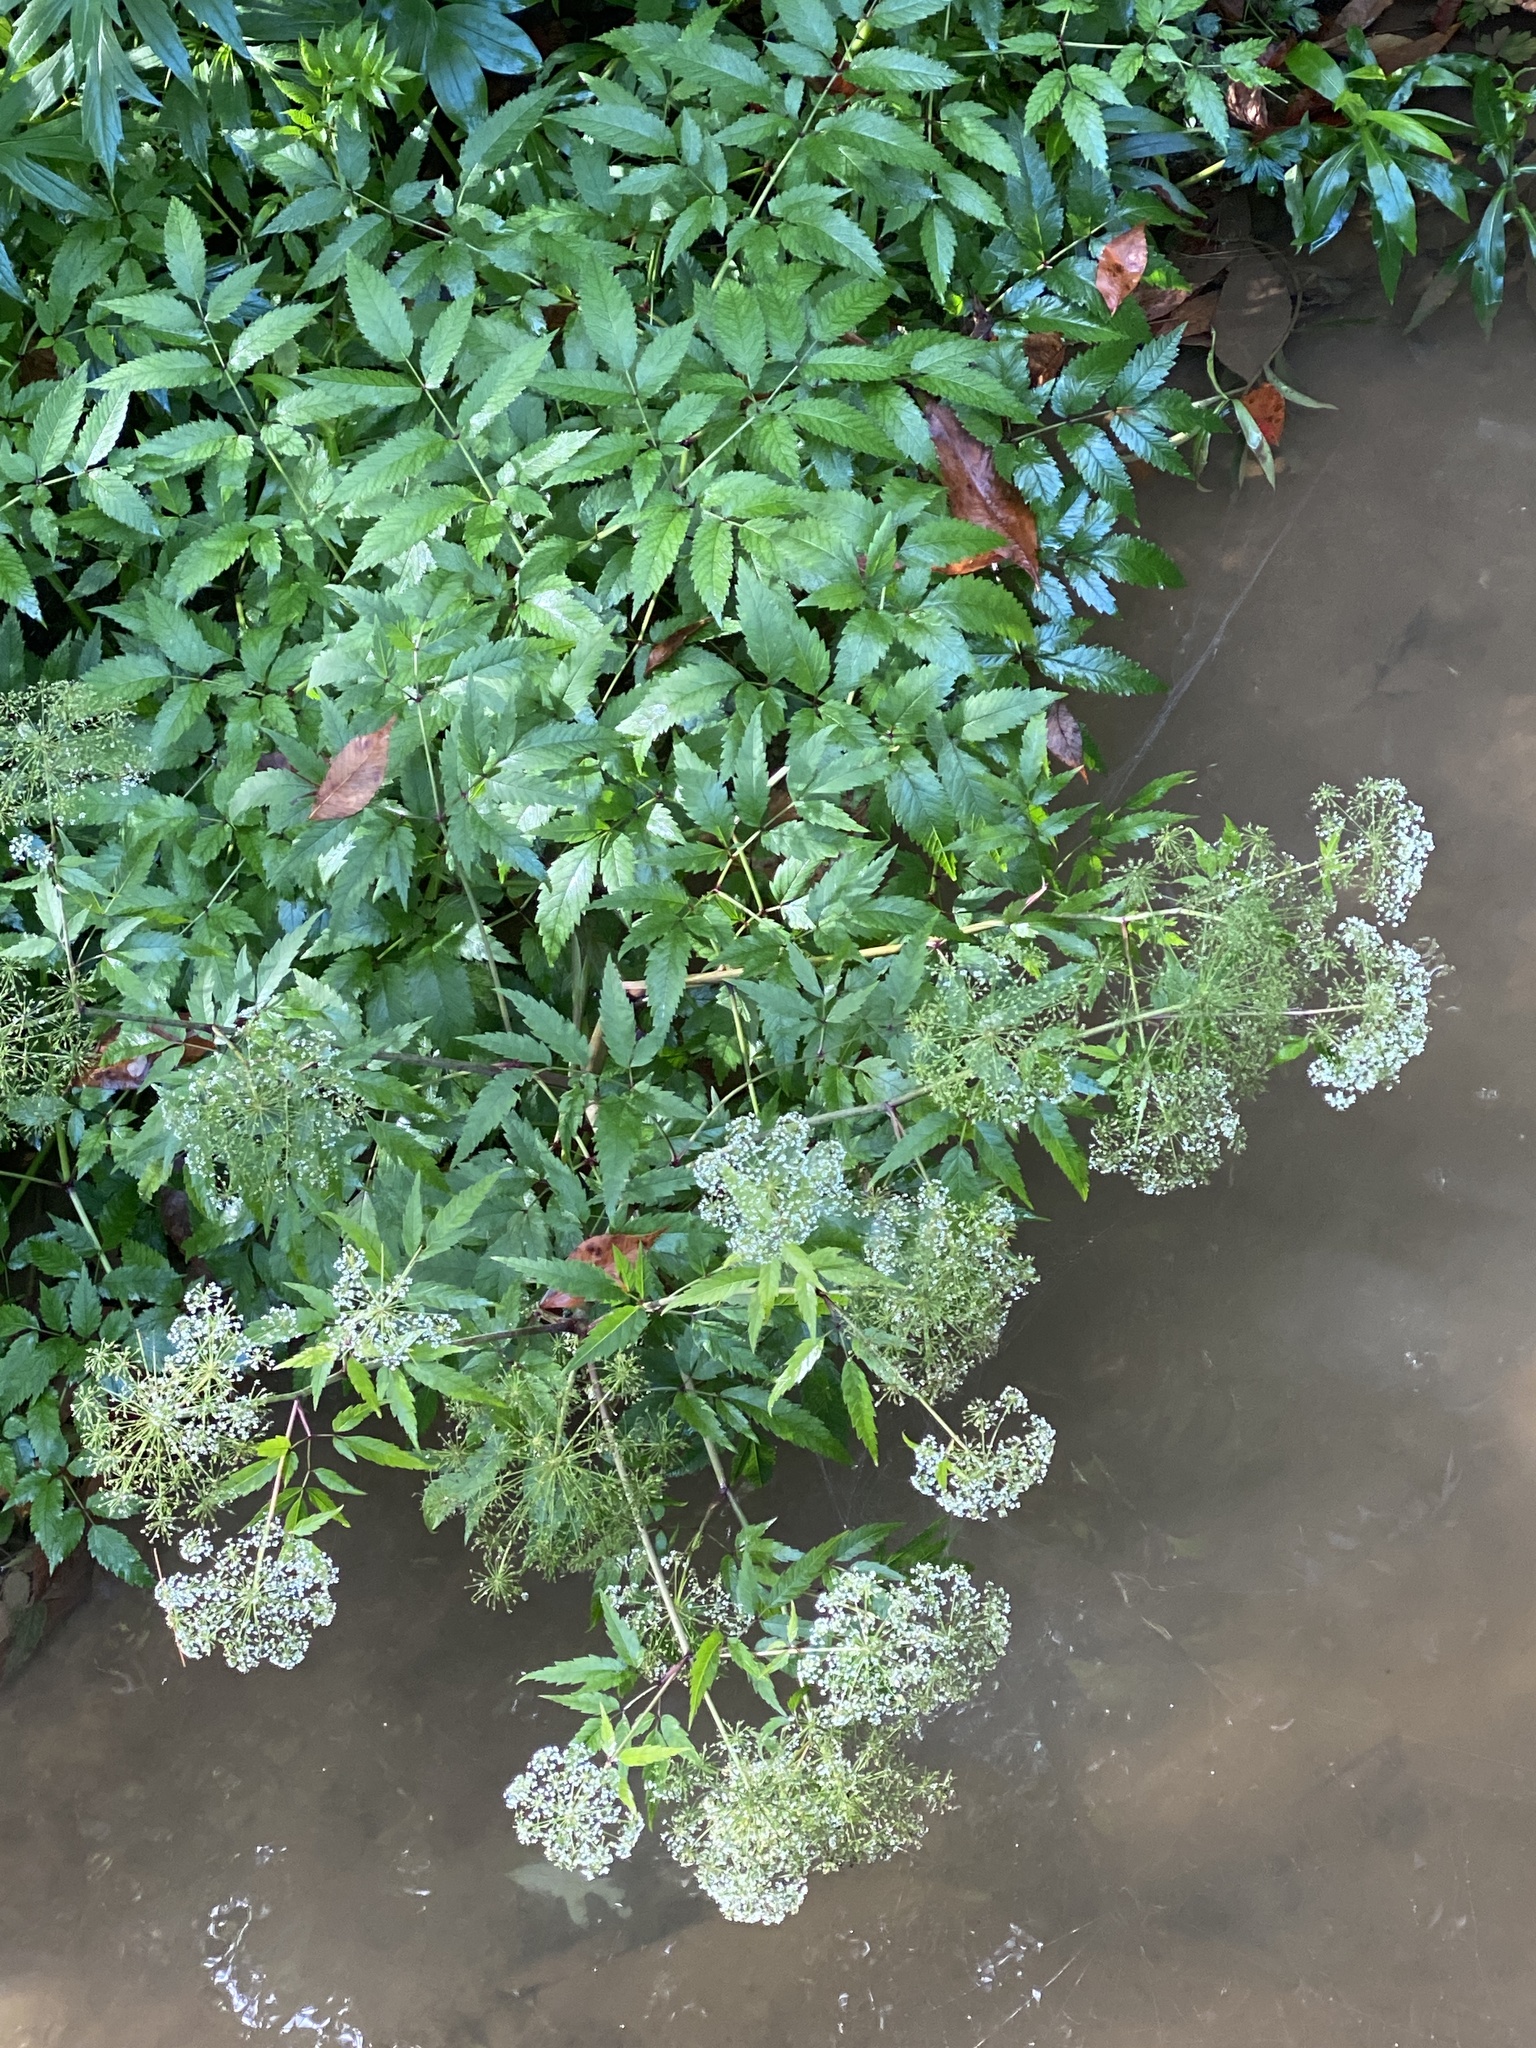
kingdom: Plantae
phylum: Tracheophyta
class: Magnoliopsida
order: Apiales
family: Apiaceae
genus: Cicuta
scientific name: Cicuta maculata
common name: Spotted cowbane
